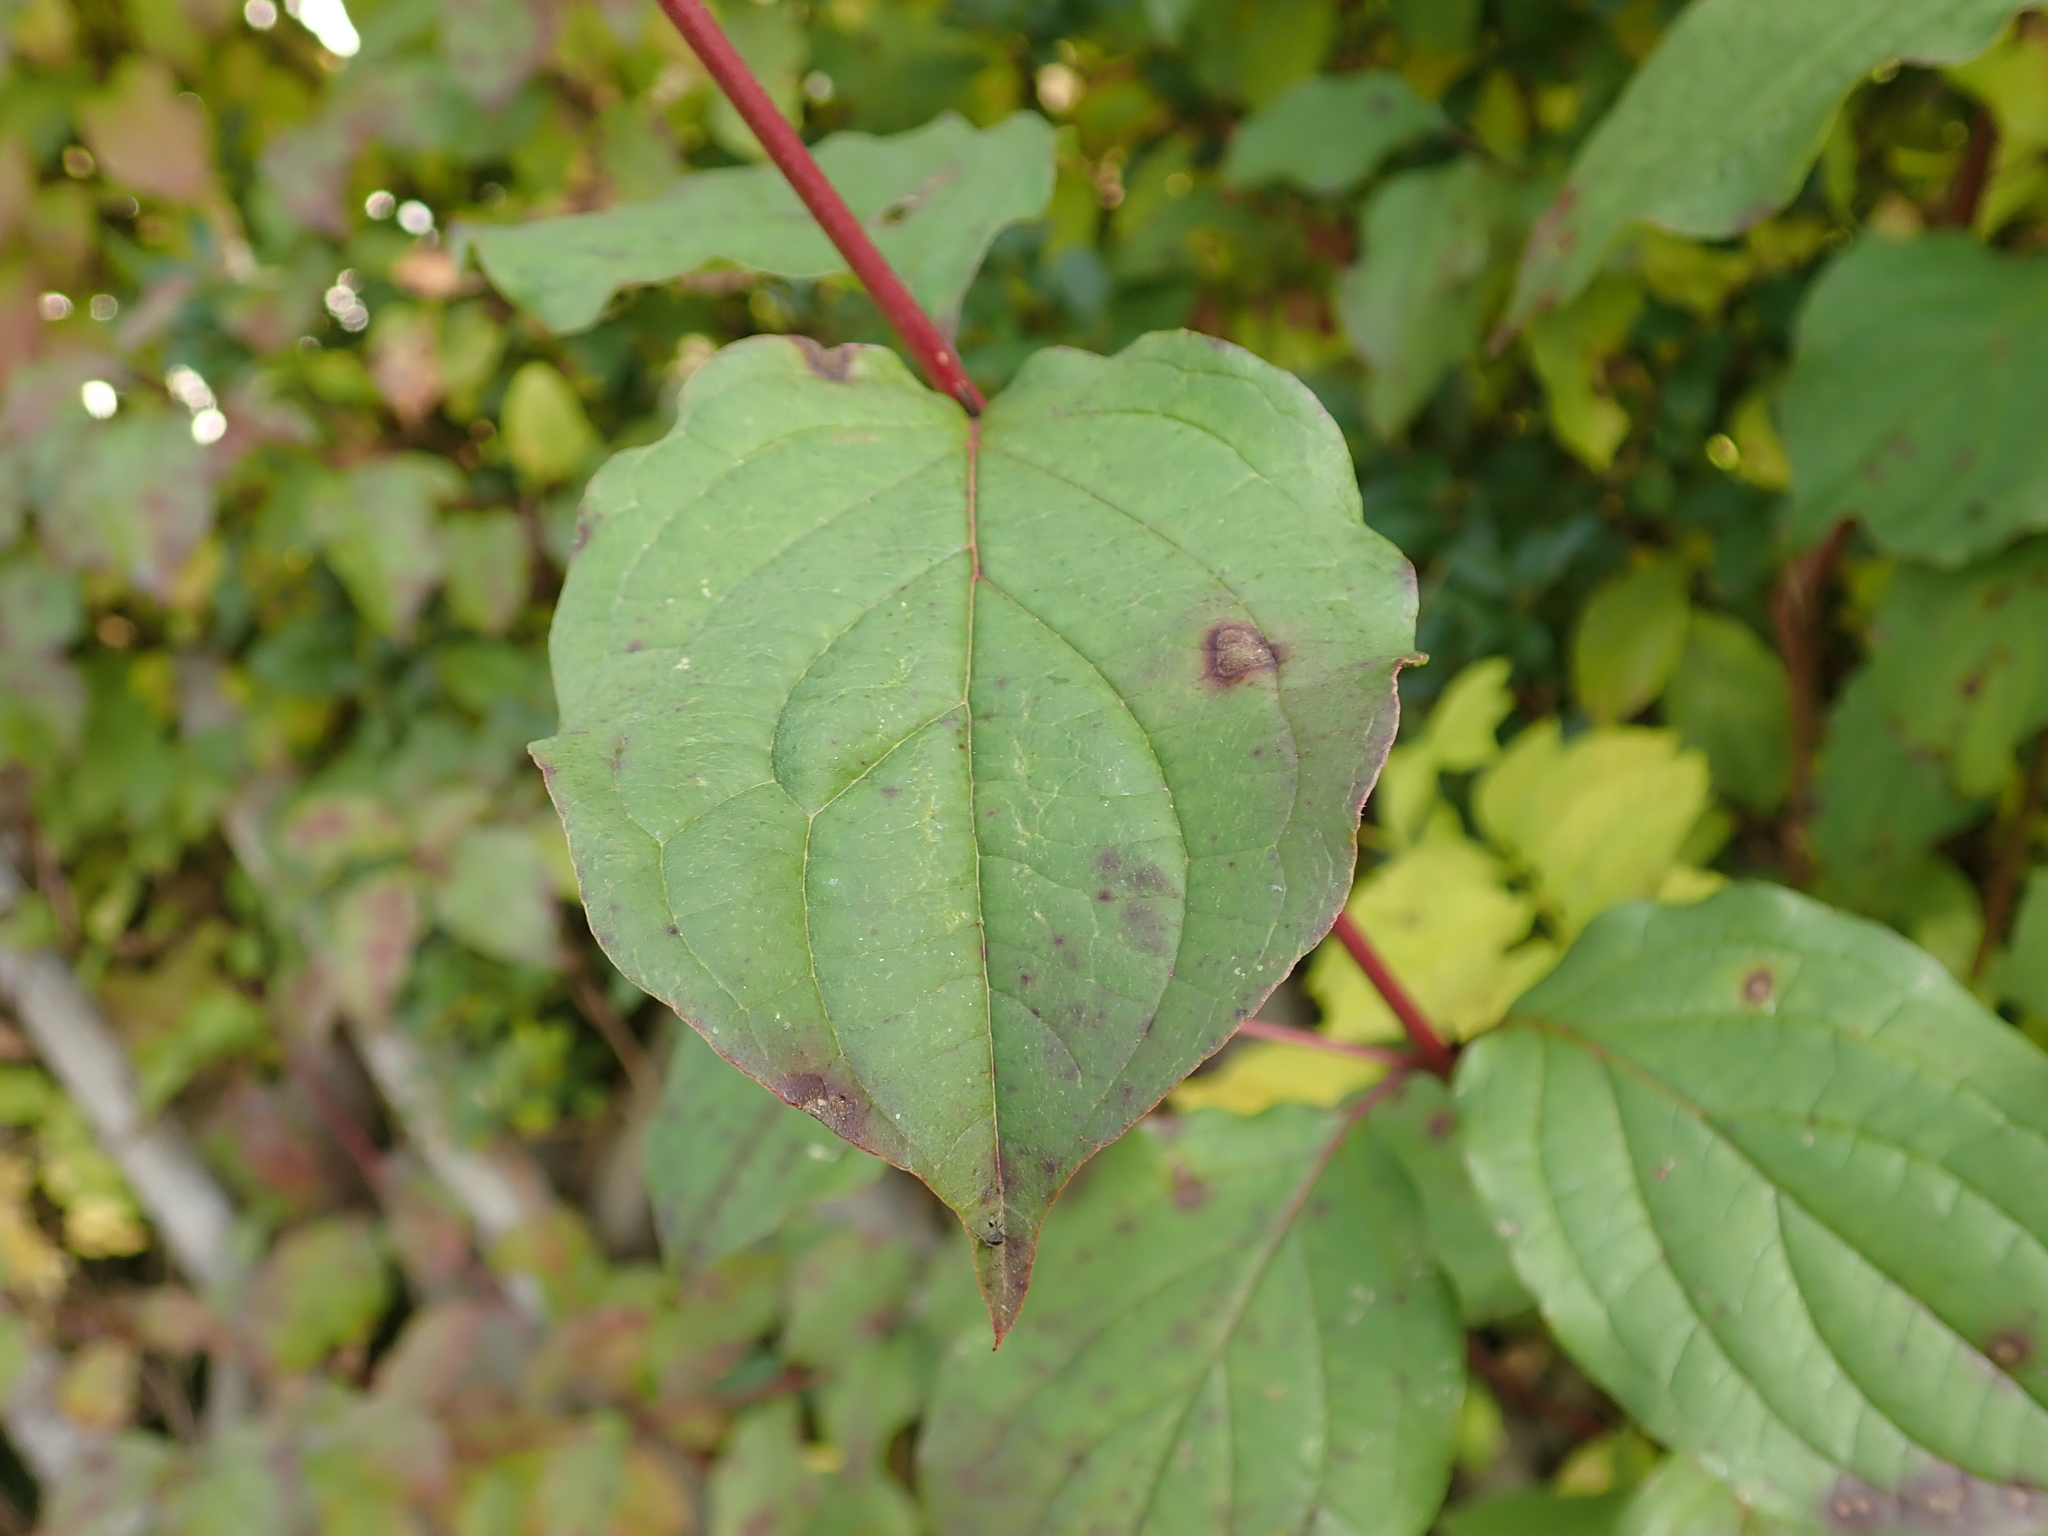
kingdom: Plantae
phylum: Tracheophyta
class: Magnoliopsida
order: Cornales
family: Cornaceae
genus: Cornus
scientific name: Cornus sanguinea
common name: Dogwood
